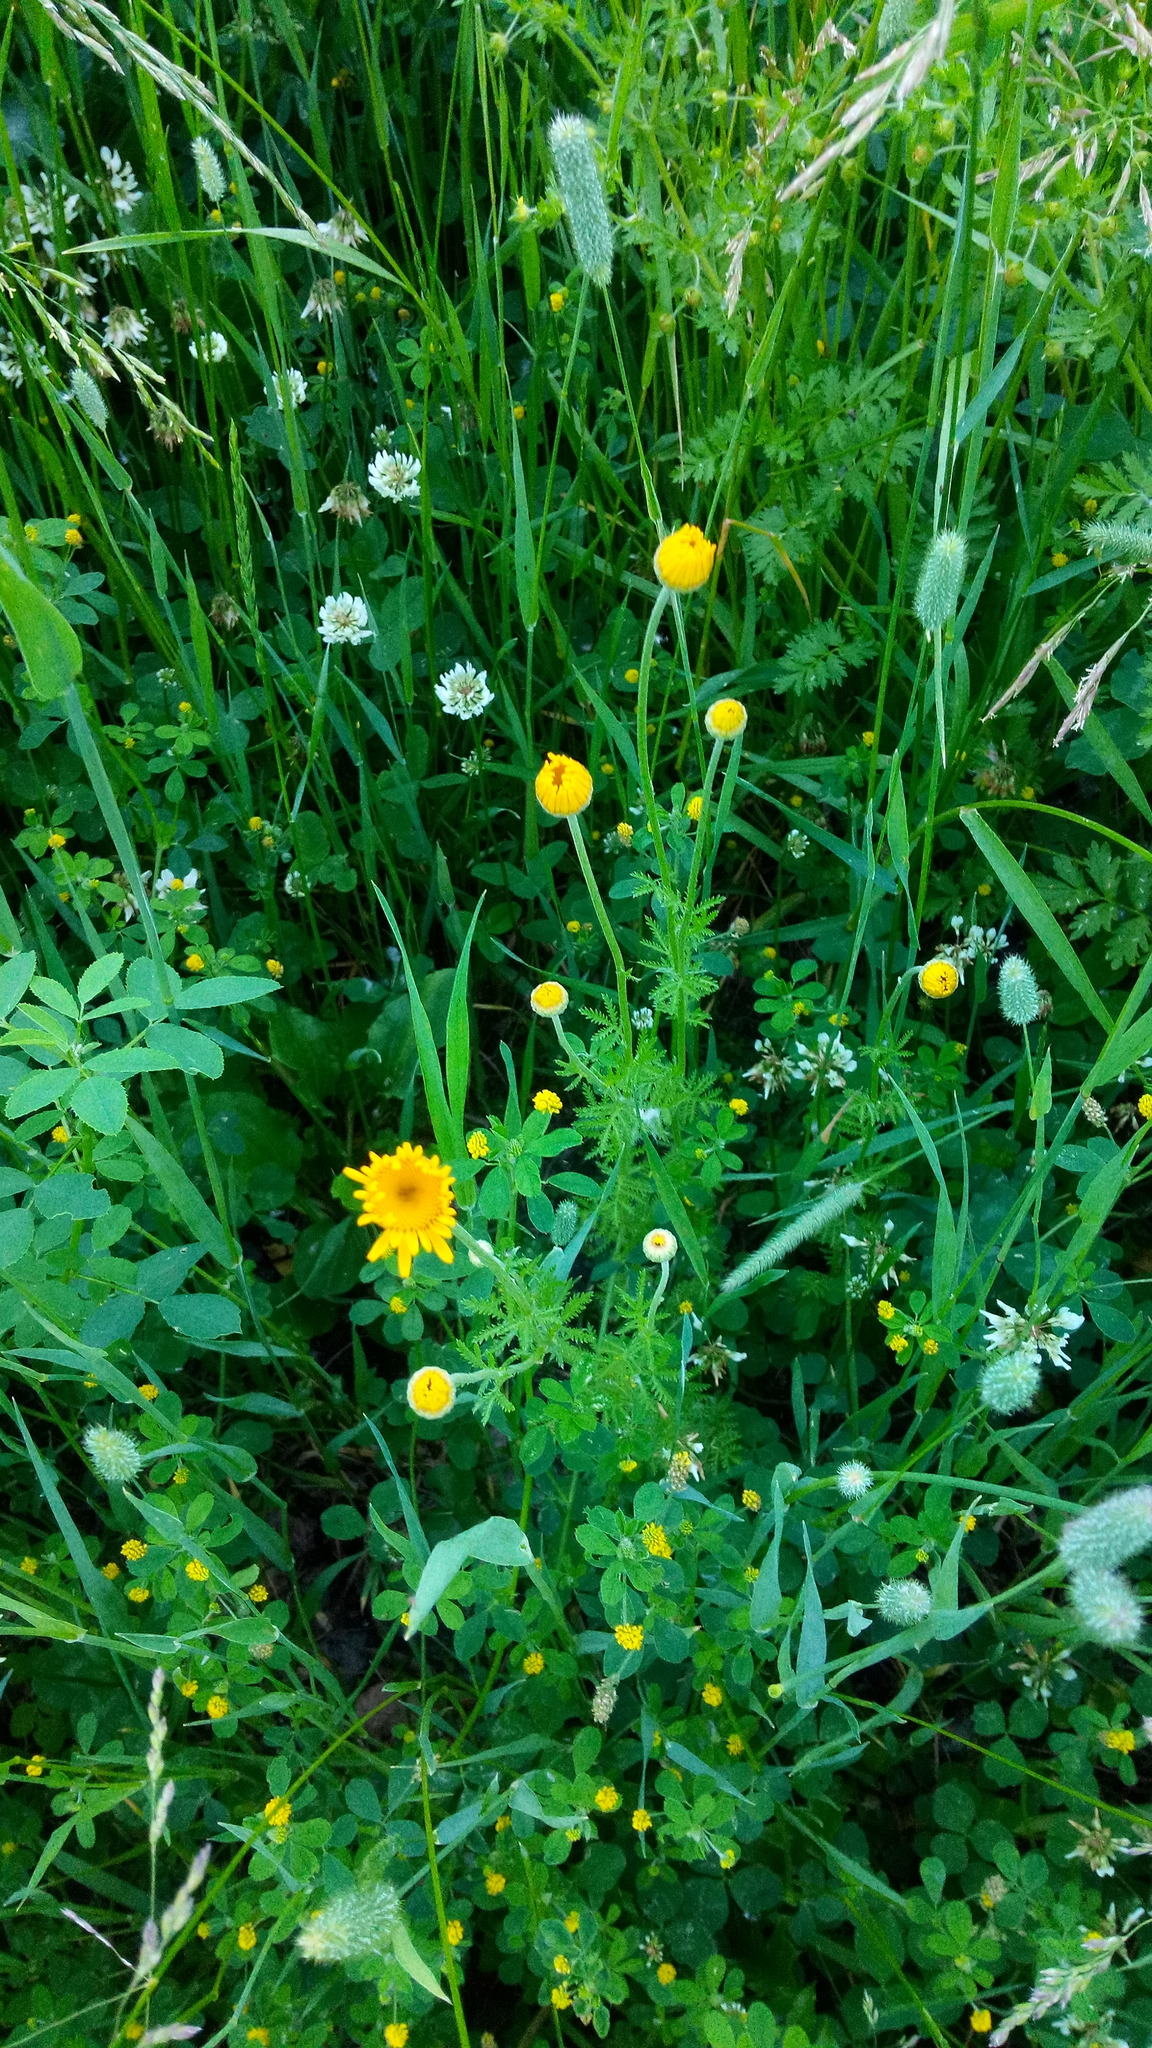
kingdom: Plantae
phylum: Tracheophyta
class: Magnoliopsida
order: Asterales
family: Asteraceae
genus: Cota
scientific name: Cota tinctoria
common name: Golden chamomile
